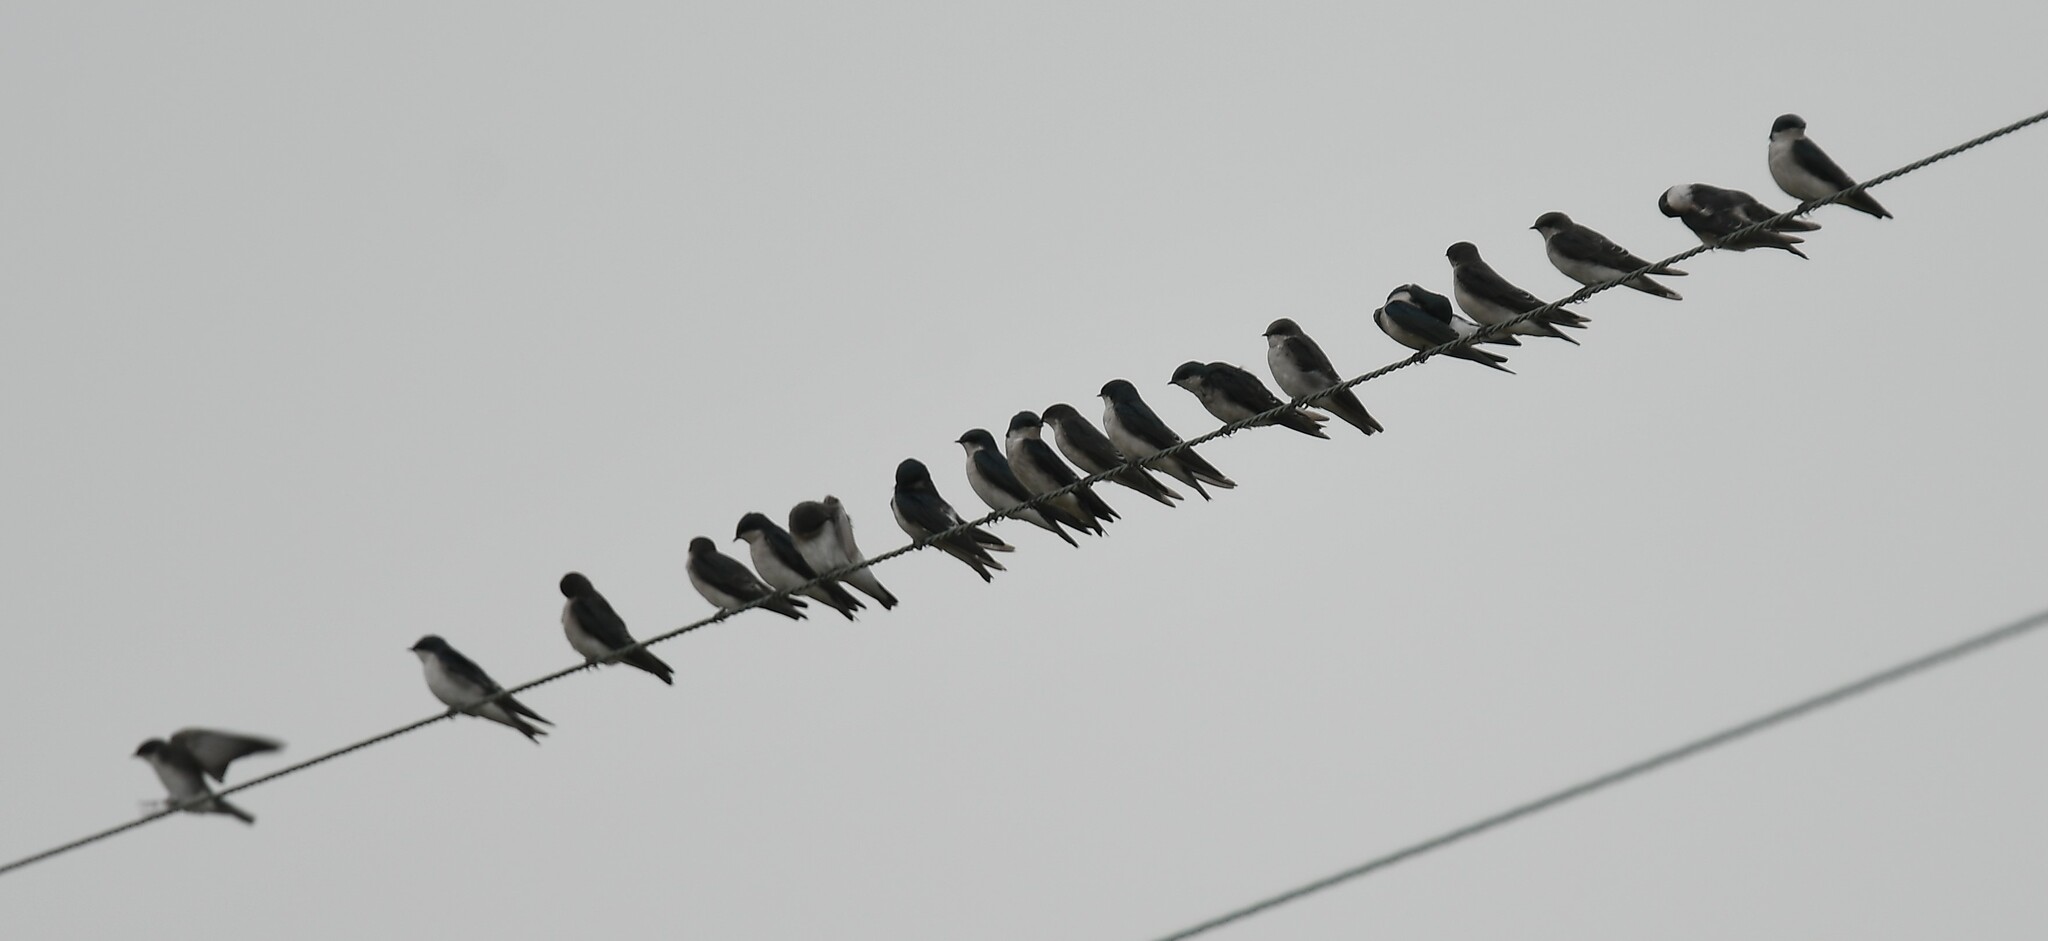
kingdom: Animalia
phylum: Chordata
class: Aves
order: Passeriformes
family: Hirundinidae
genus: Tachycineta
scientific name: Tachycineta bicolor
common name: Tree swallow
